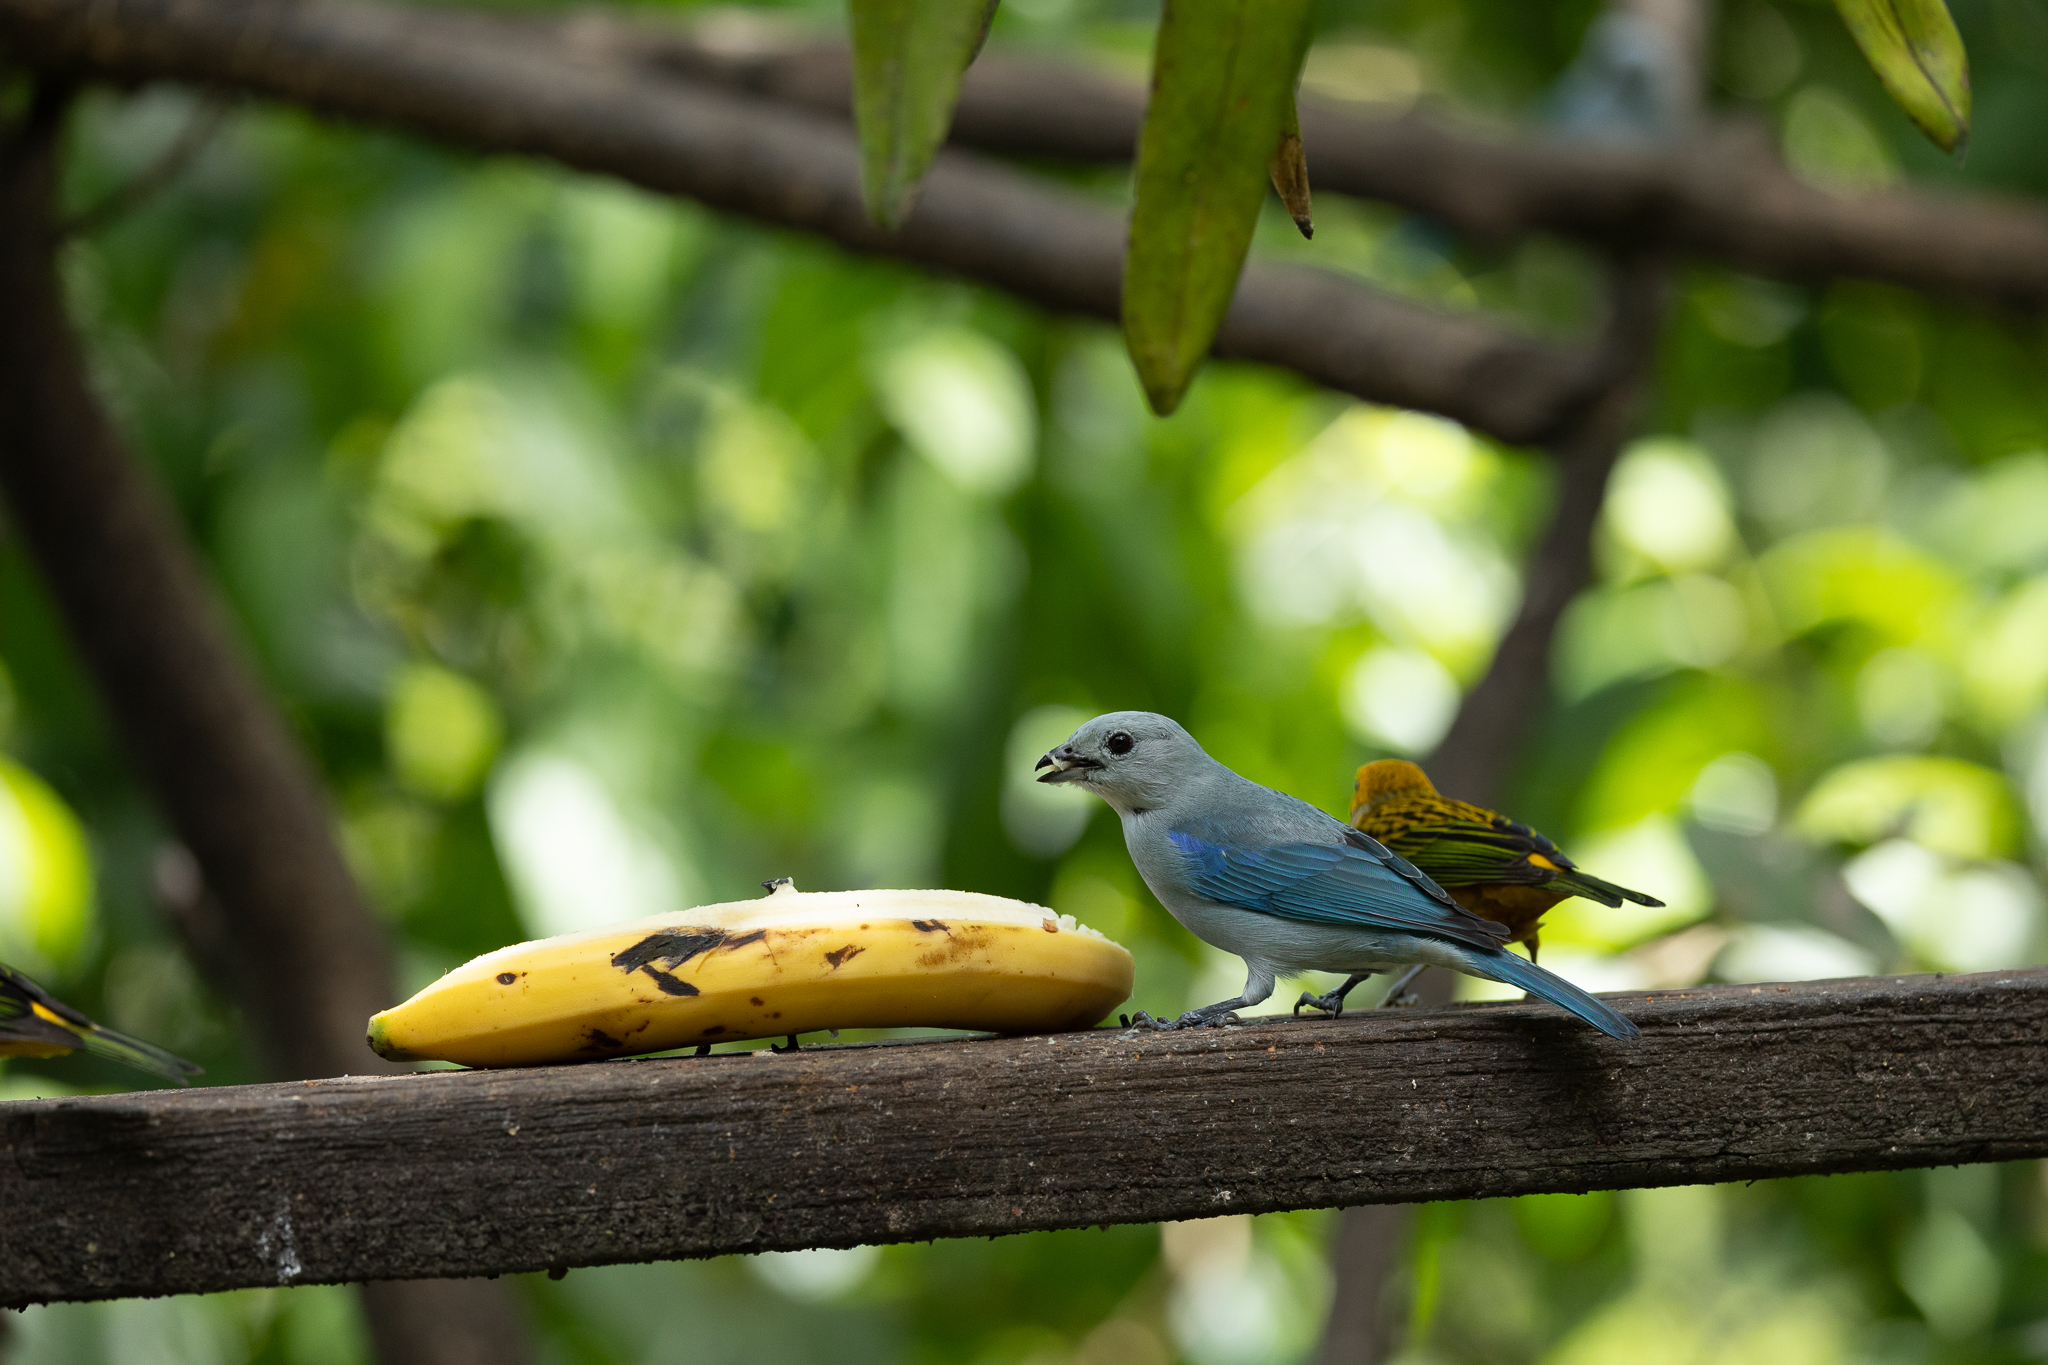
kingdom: Animalia
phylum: Chordata
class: Aves
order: Passeriformes
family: Thraupidae
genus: Thraupis
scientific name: Thraupis episcopus
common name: Blue-grey tanager
